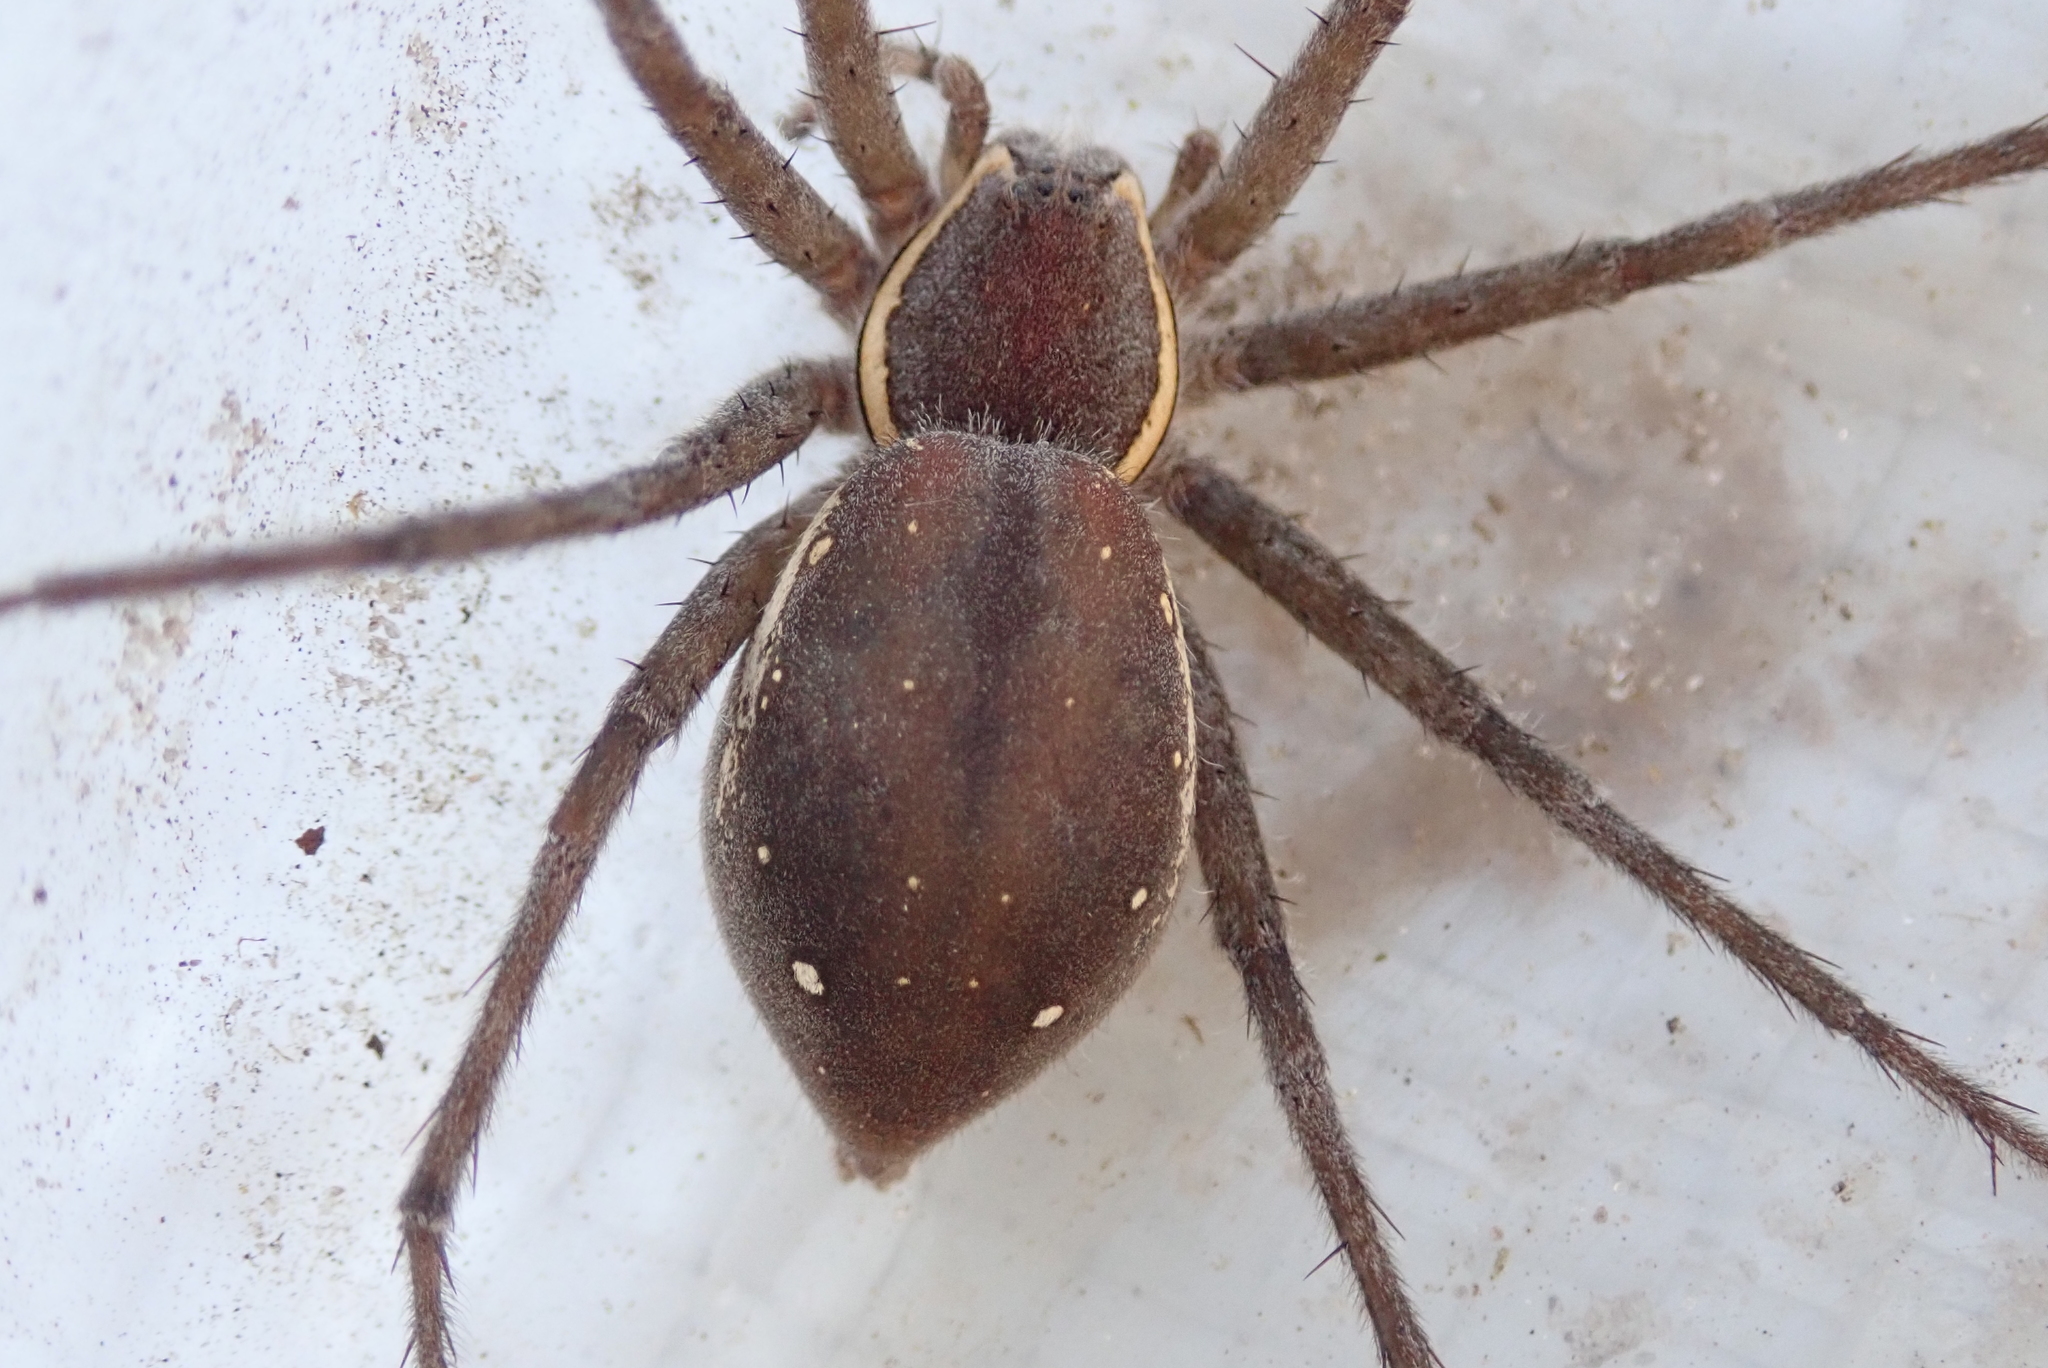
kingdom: Animalia
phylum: Arthropoda
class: Arachnida
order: Araneae
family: Pisauridae
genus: Nilus
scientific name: Nilus margaritatus
